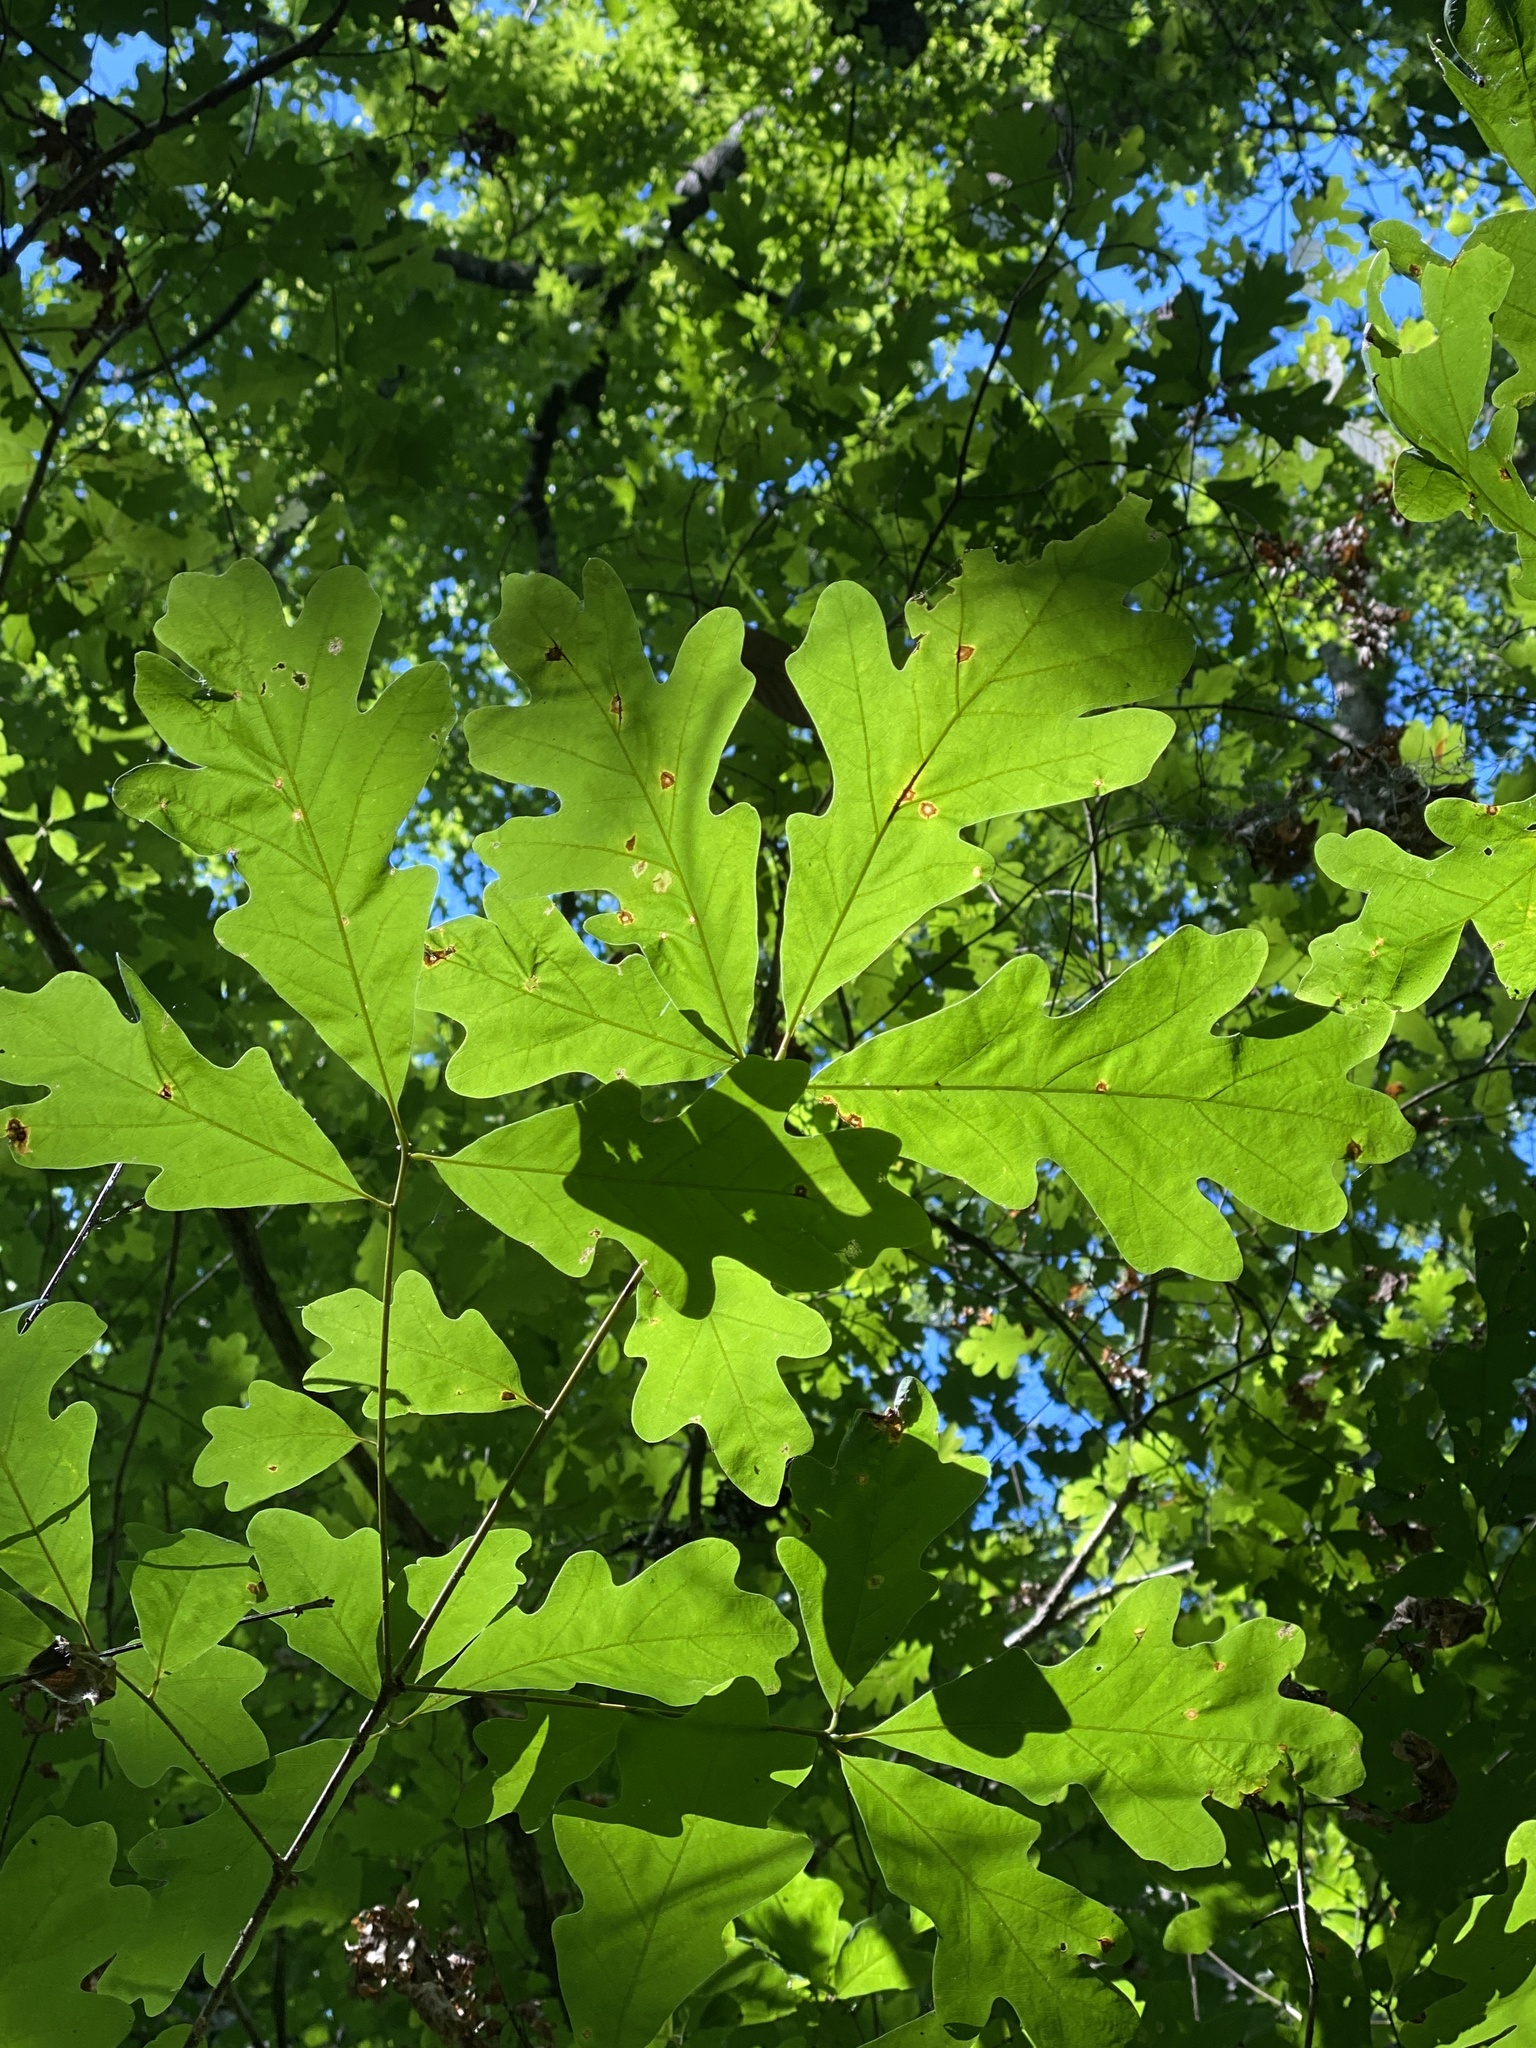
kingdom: Plantae
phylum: Tracheophyta
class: Magnoliopsida
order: Fagales
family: Fagaceae
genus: Quercus
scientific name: Quercus alba
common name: White oak
